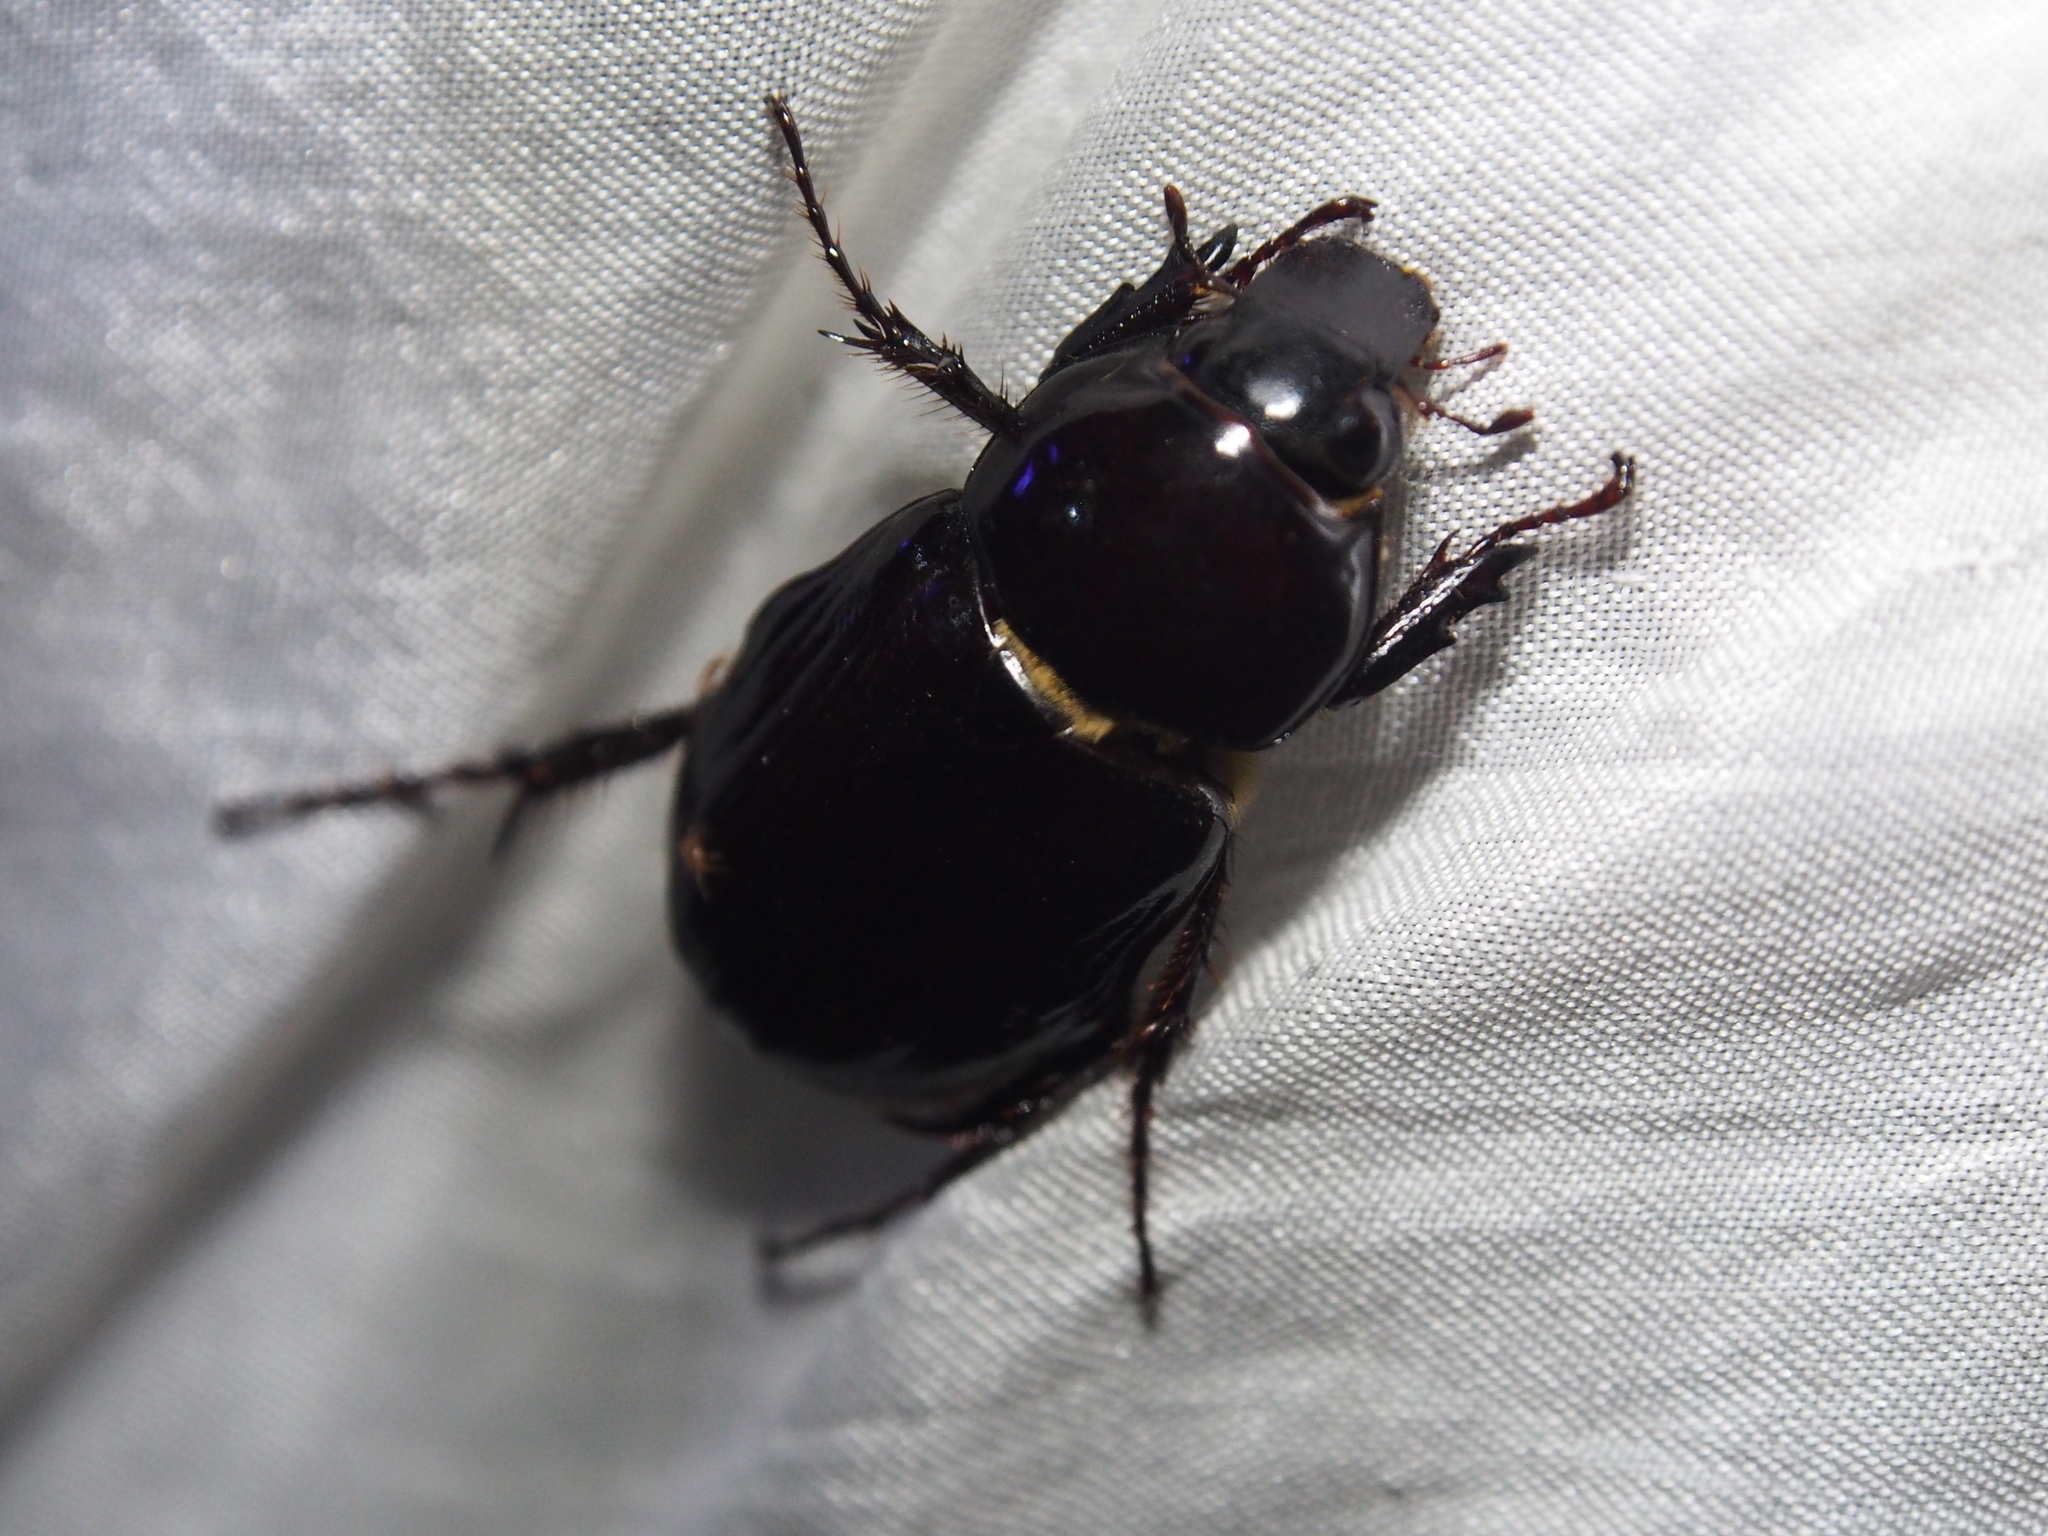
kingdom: Animalia
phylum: Arthropoda
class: Insecta
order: Coleoptera
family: Scarabaeidae
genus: Aspidolea
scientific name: Aspidolea fuliginea
